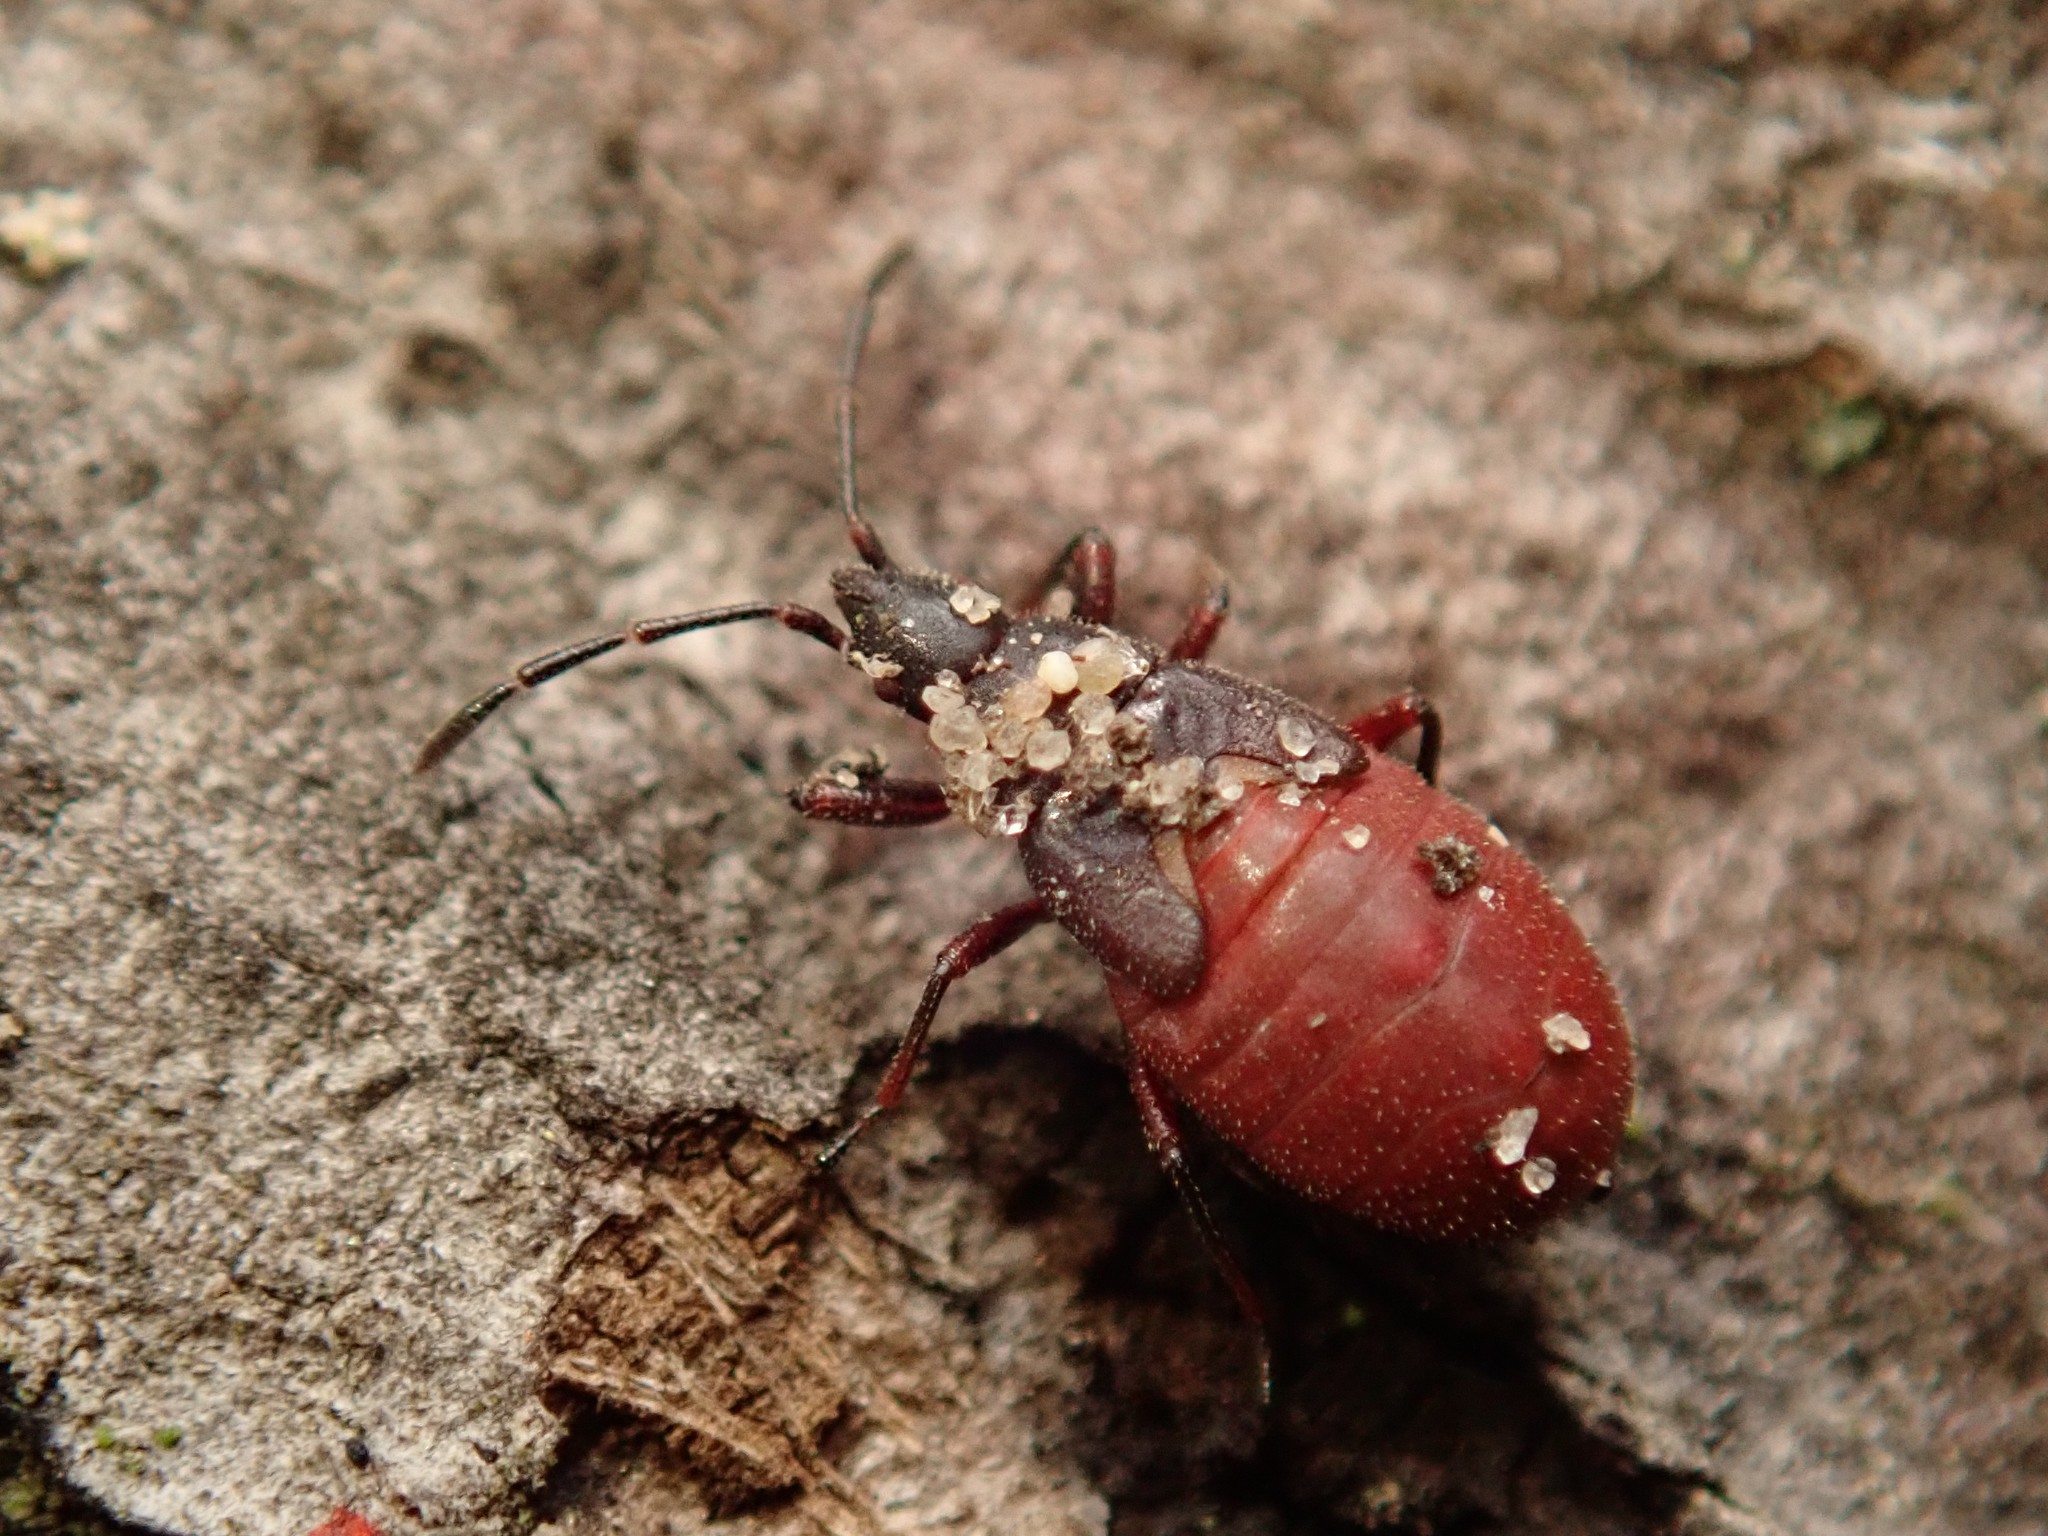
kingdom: Animalia
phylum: Arthropoda
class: Insecta
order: Hemiptera
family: Oxycarenidae
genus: Oxycarenus
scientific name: Oxycarenus lavaterae
